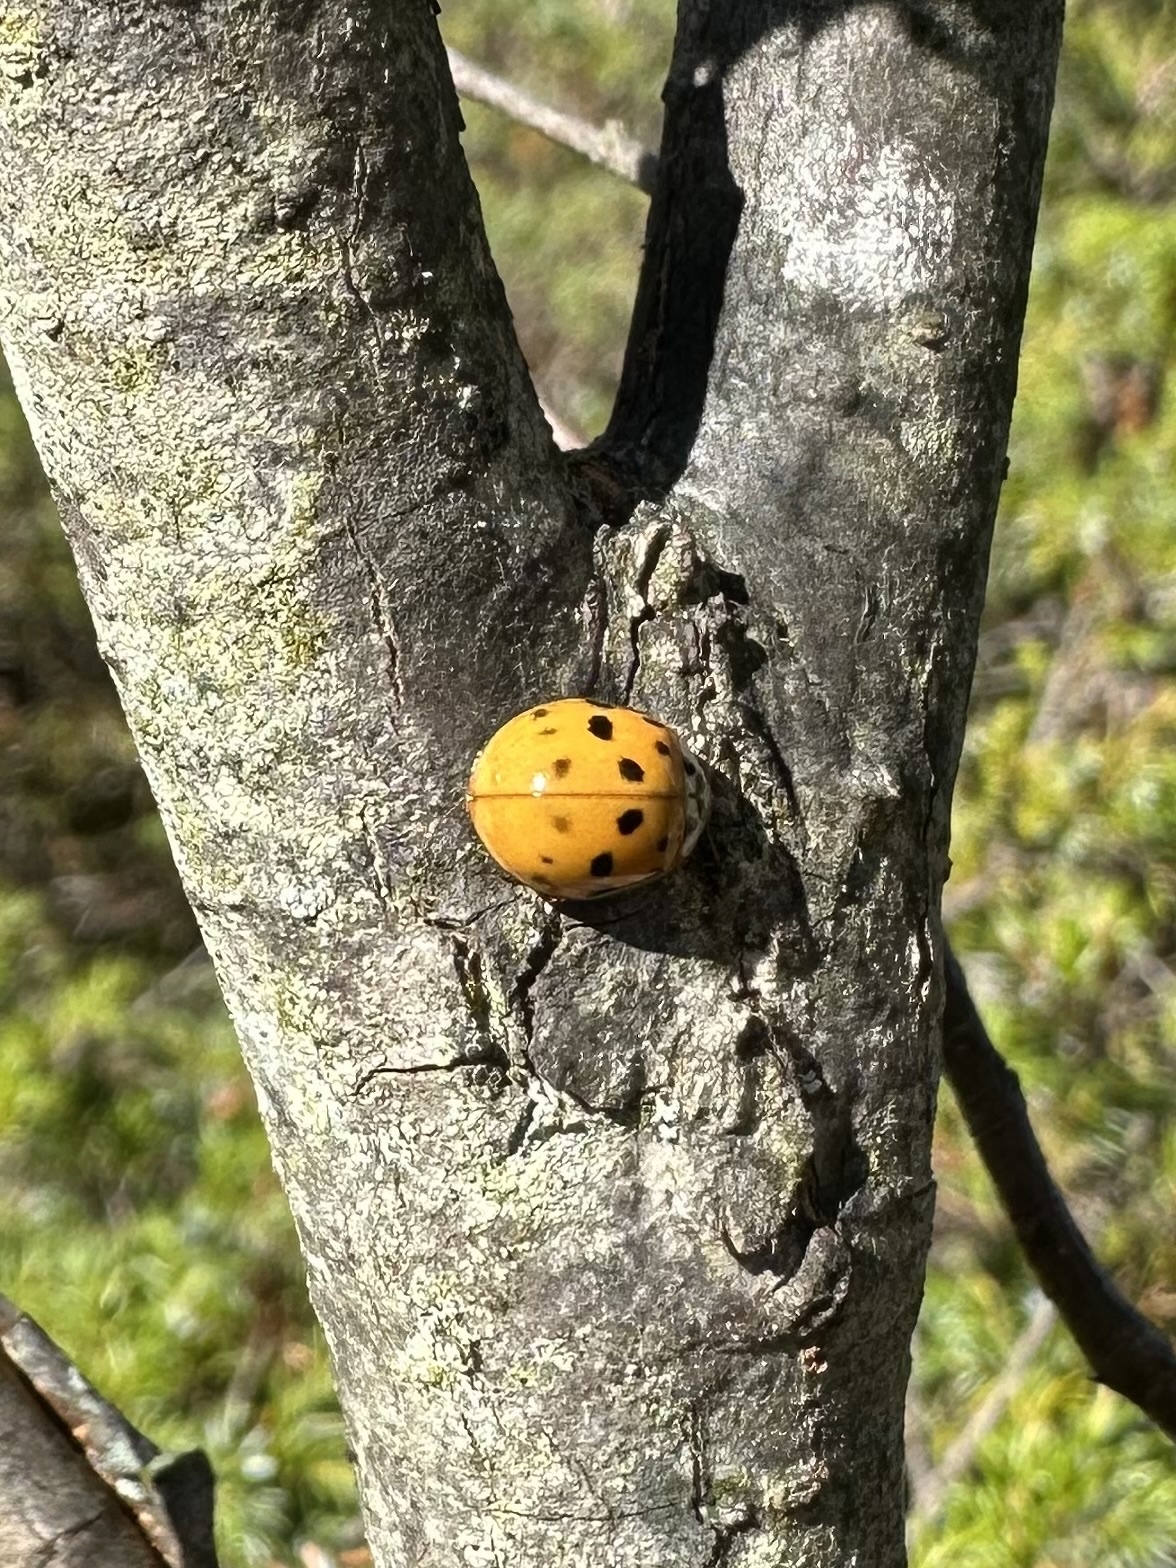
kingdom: Animalia
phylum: Arthropoda
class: Insecta
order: Coleoptera
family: Coccinellidae
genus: Harmonia
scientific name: Harmonia axyridis
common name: Harlequin ladybird
